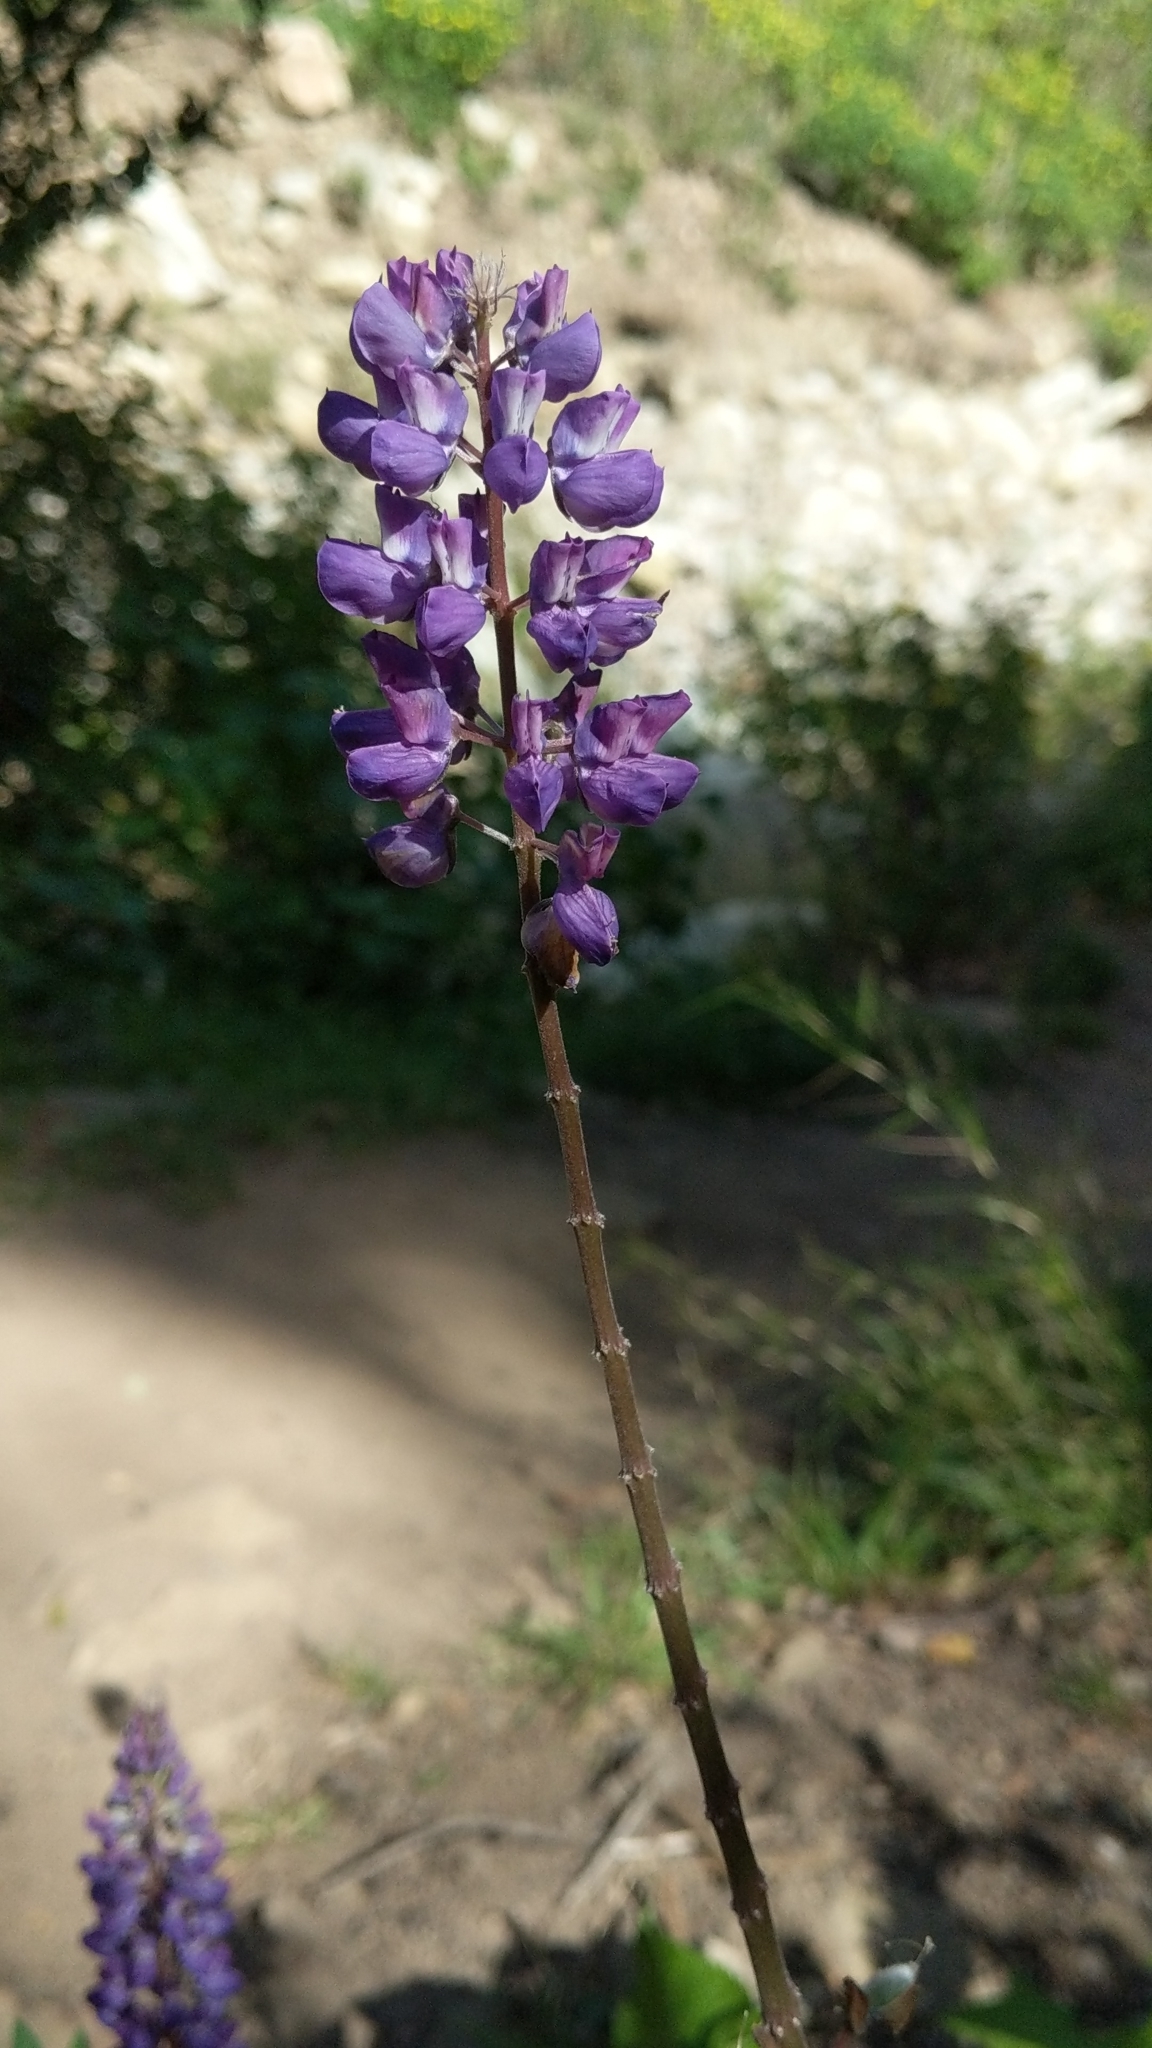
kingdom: Plantae
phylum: Tracheophyta
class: Magnoliopsida
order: Fabales
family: Fabaceae
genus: Lupinus
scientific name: Lupinus latifolius
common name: Broad-leaved lupine
